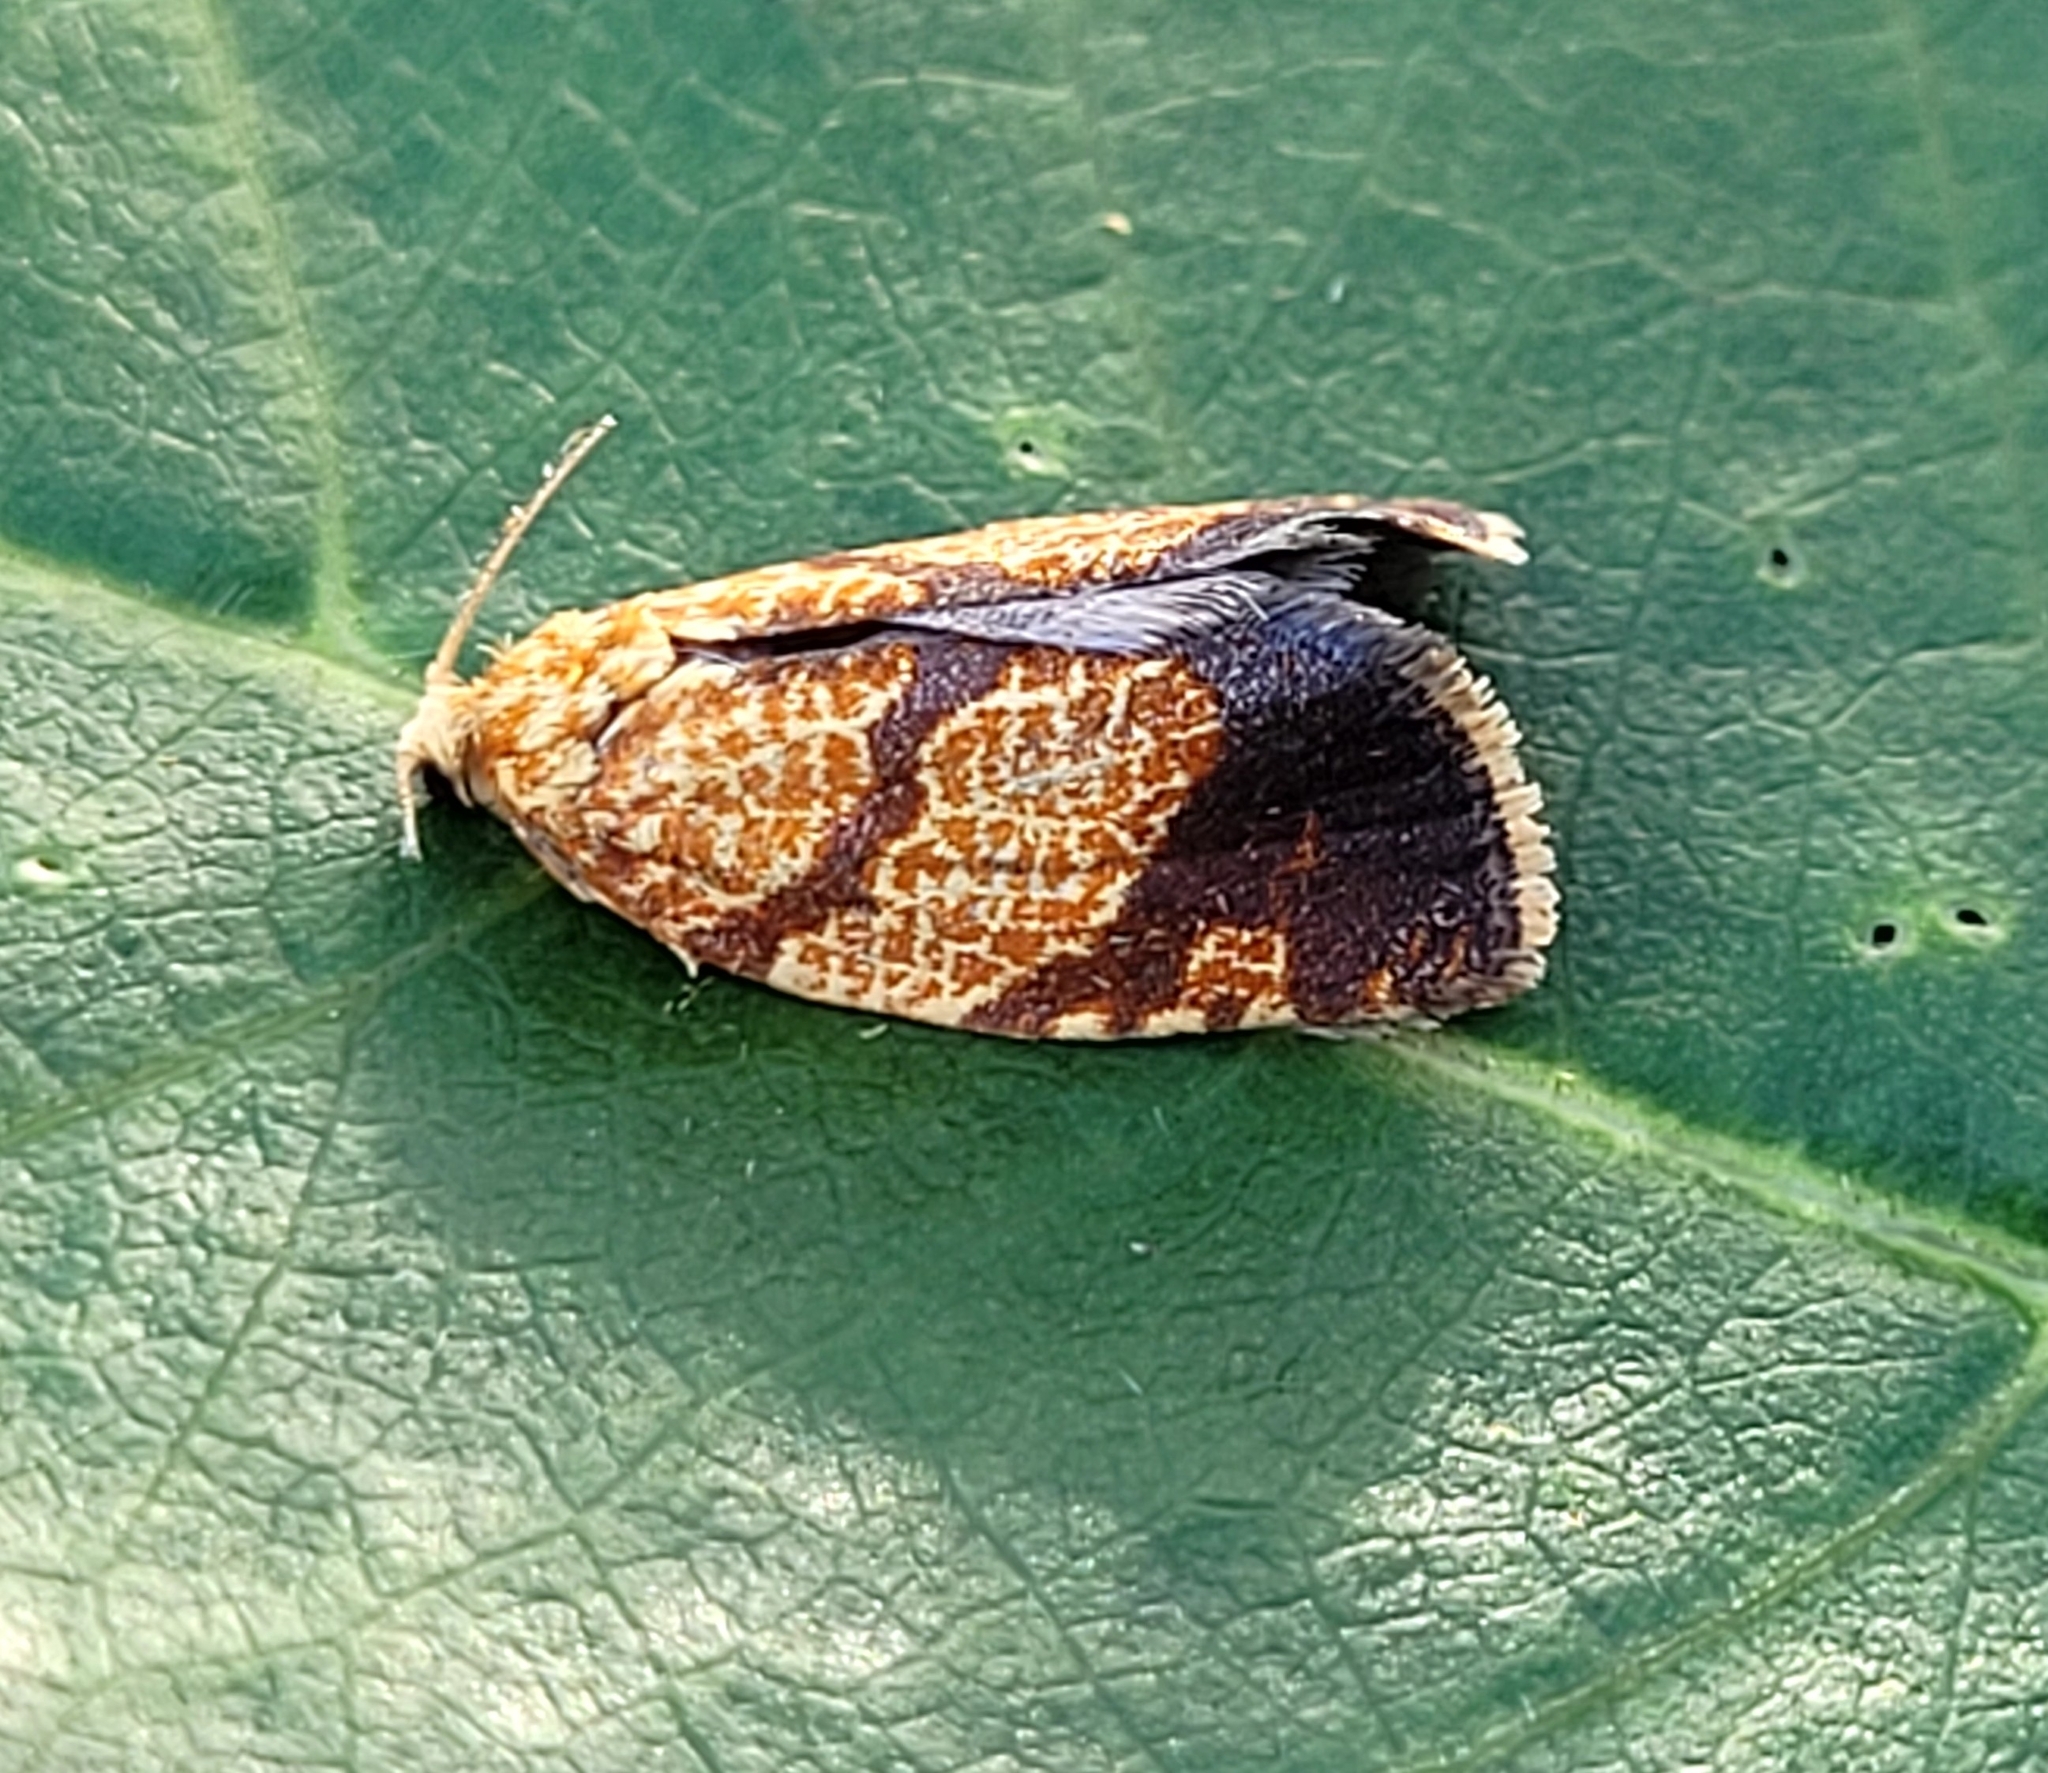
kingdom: Animalia
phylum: Arthropoda
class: Insecta
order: Lepidoptera
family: Tortricidae
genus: Argyrotaenia
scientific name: Argyrotaenia quadrifasciana
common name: Four-lined leafroller moth
